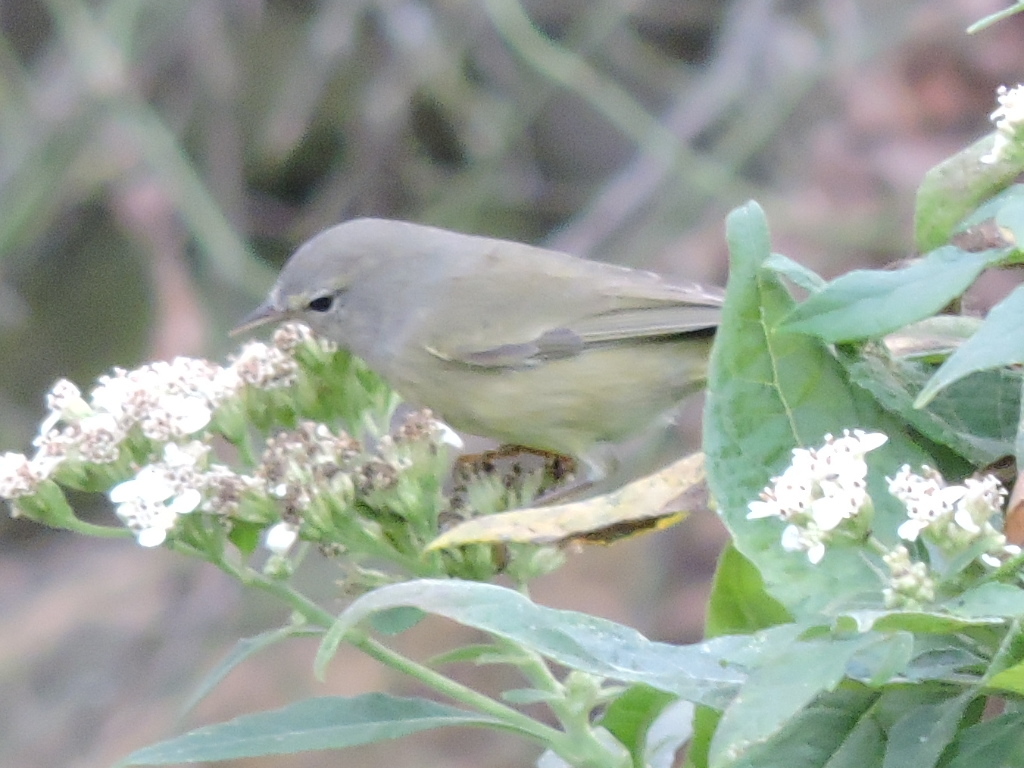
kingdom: Animalia
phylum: Chordata
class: Aves
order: Passeriformes
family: Parulidae
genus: Leiothlypis
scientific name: Leiothlypis celata
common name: Orange-crowned warbler
